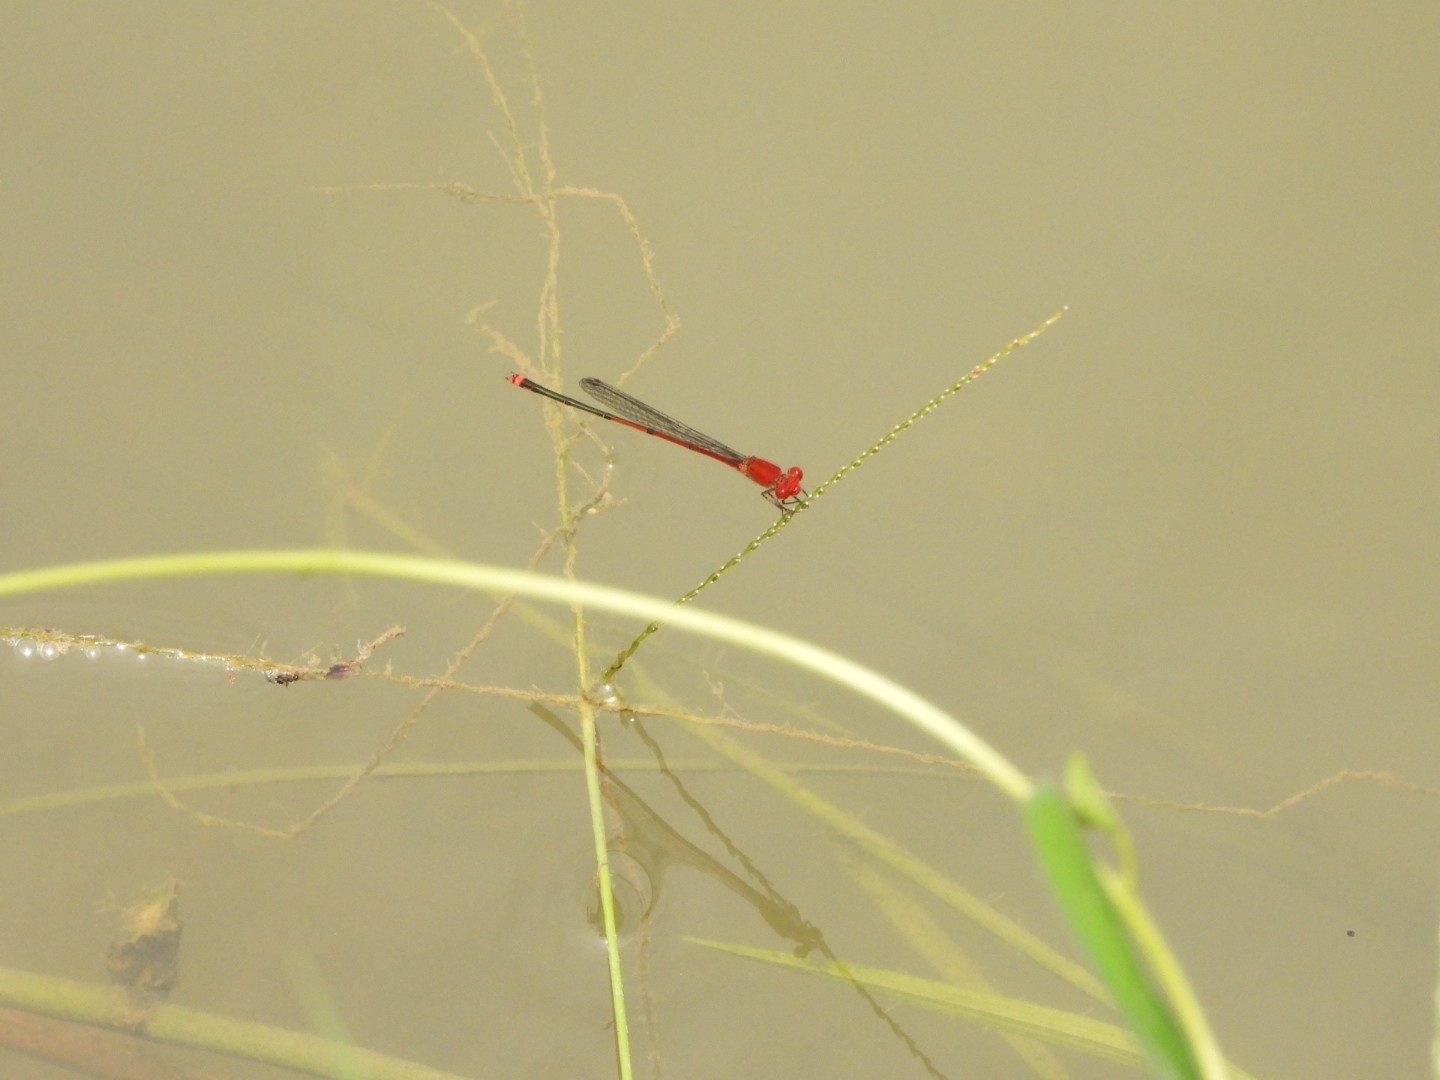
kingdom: Animalia
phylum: Arthropoda
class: Insecta
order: Odonata
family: Coenagrionidae
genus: Pseudagrion
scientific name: Pseudagrion pilidorsum
